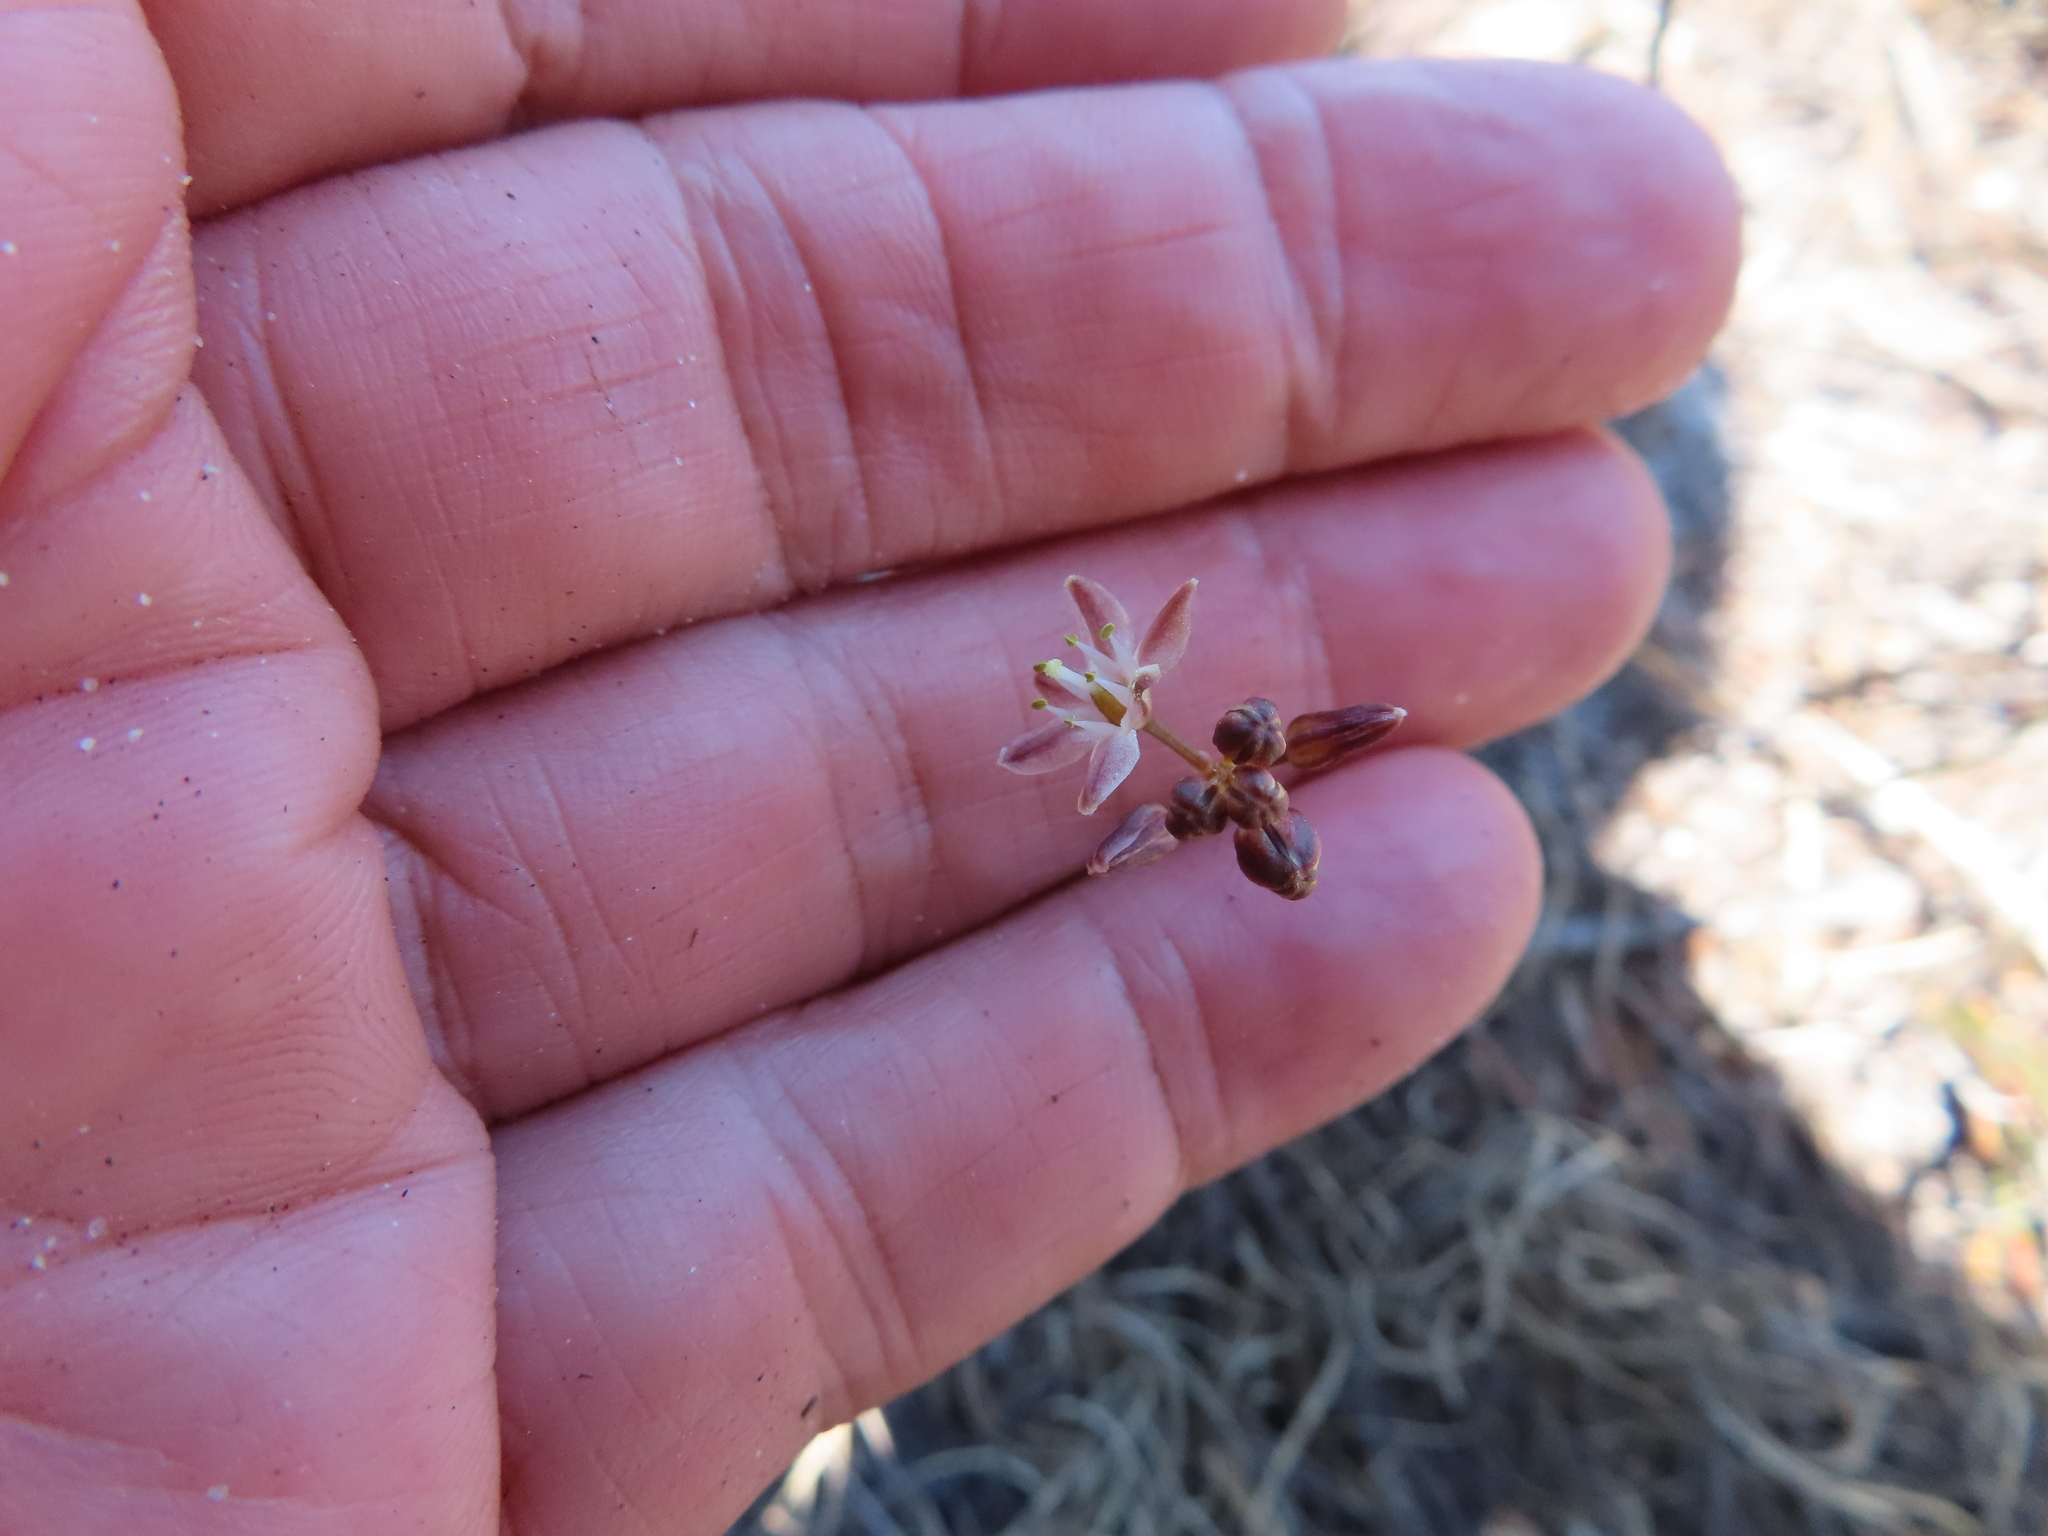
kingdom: Plantae
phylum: Tracheophyta
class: Liliopsida
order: Asparagales
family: Asparagaceae
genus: Drimia
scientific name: Drimia salteri
